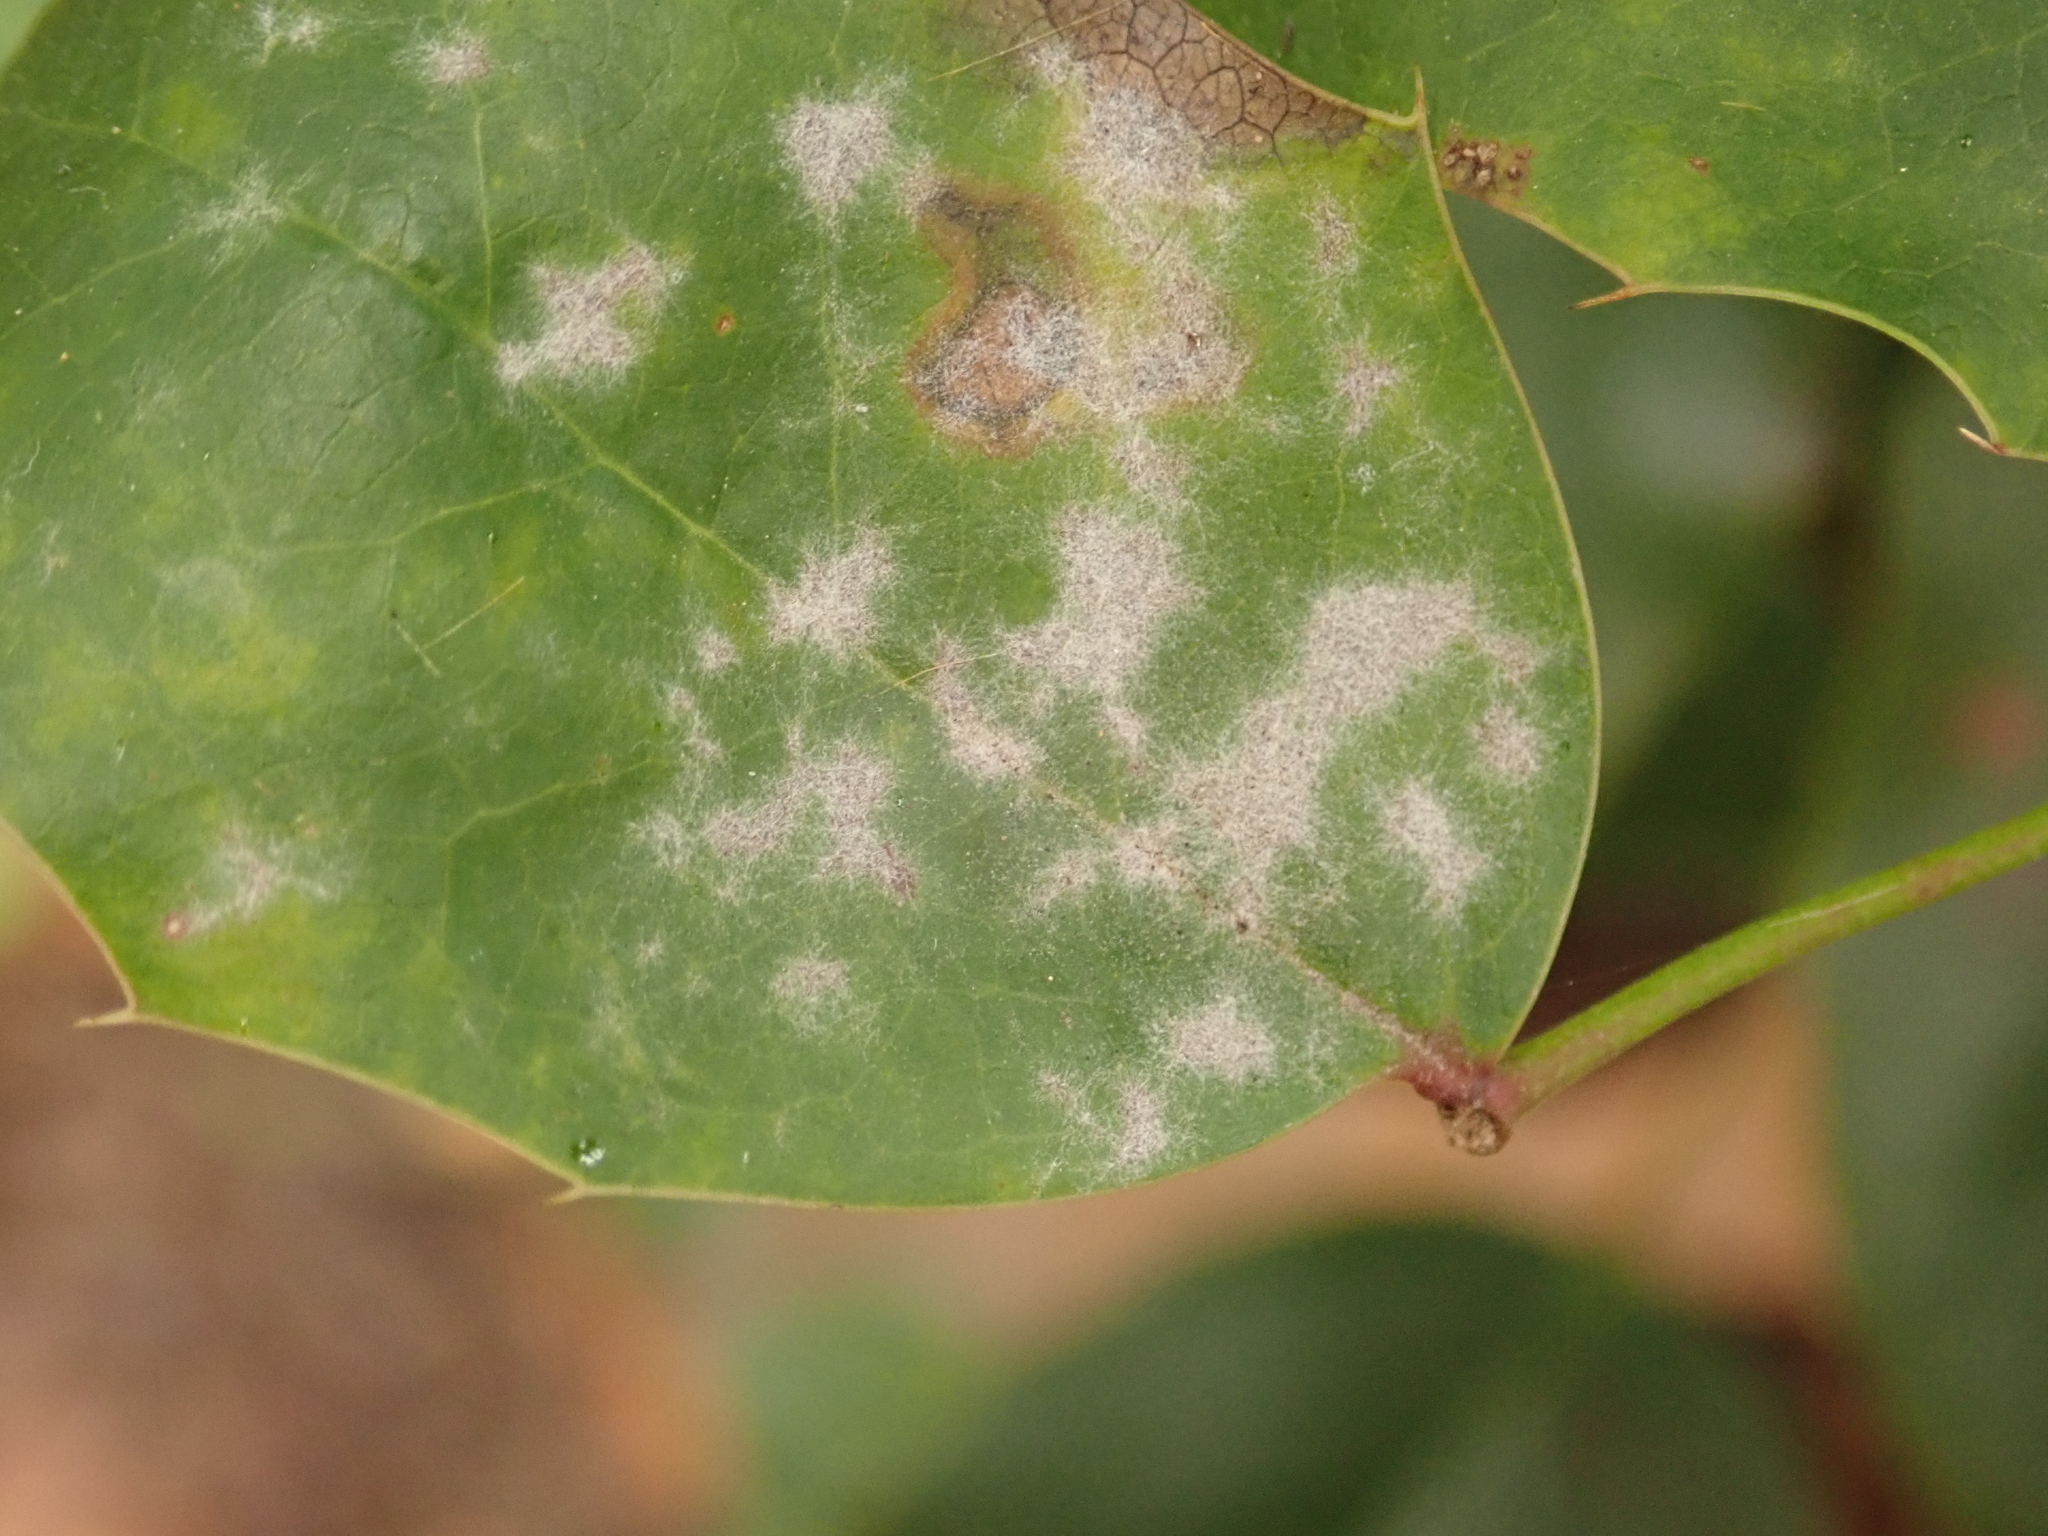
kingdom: Fungi
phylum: Ascomycota
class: Leotiomycetes
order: Helotiales
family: Erysiphaceae
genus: Erysiphe
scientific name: Erysiphe berberidis
